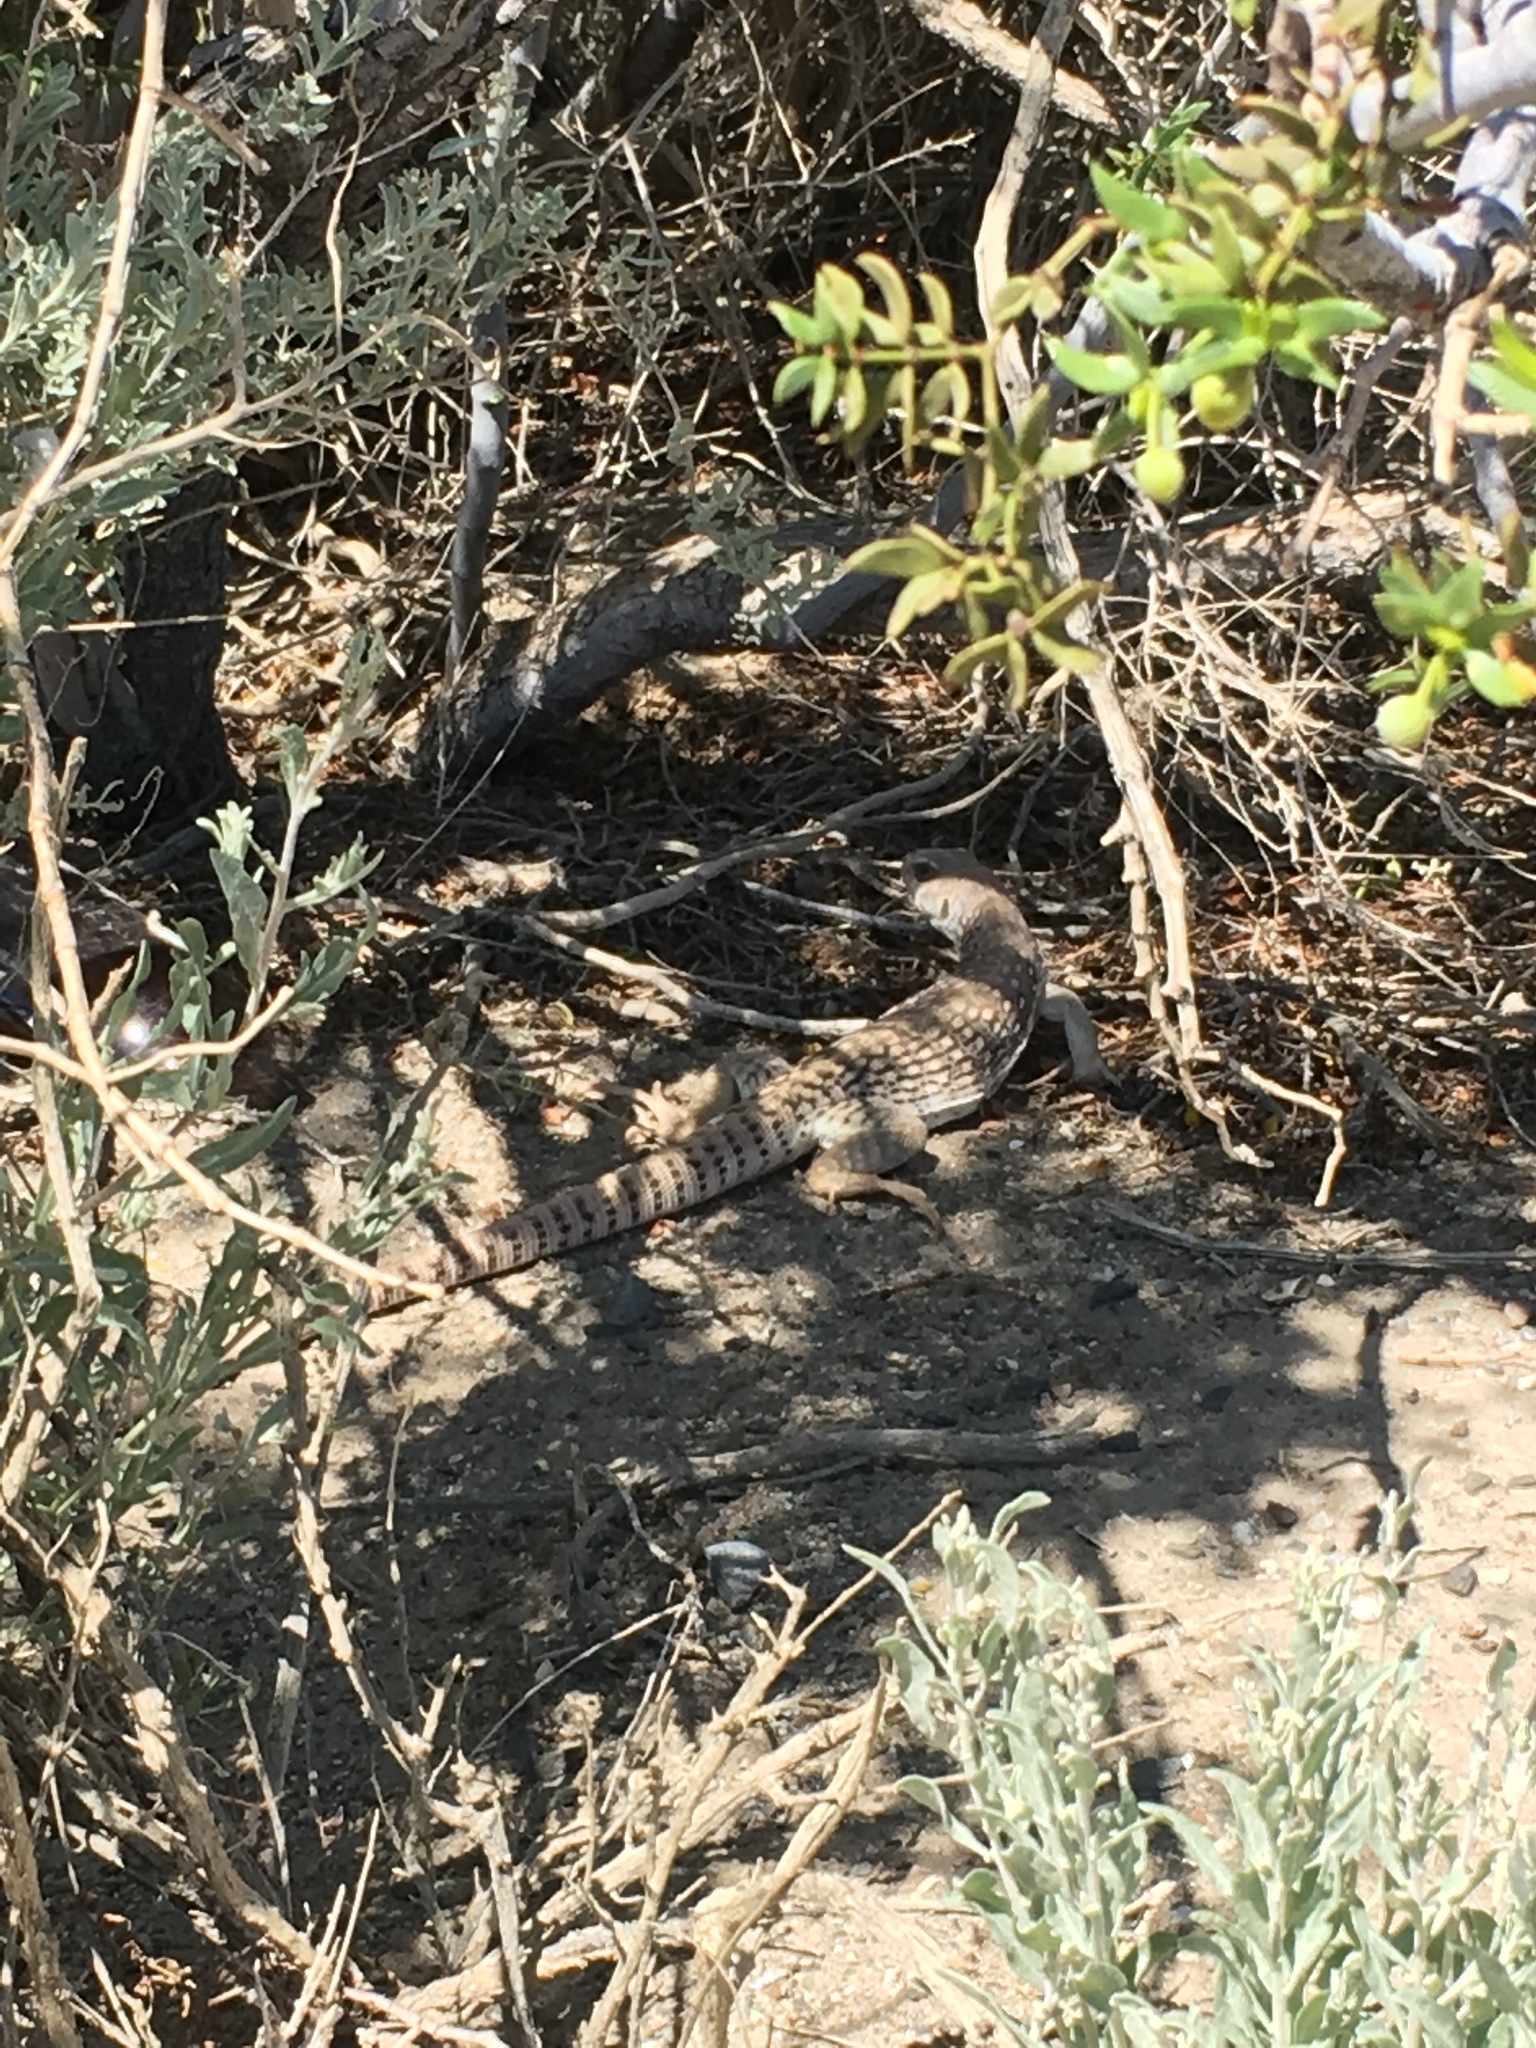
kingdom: Animalia
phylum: Chordata
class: Squamata
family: Iguanidae
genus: Dipsosaurus
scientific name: Dipsosaurus dorsalis
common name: Desert iguana
